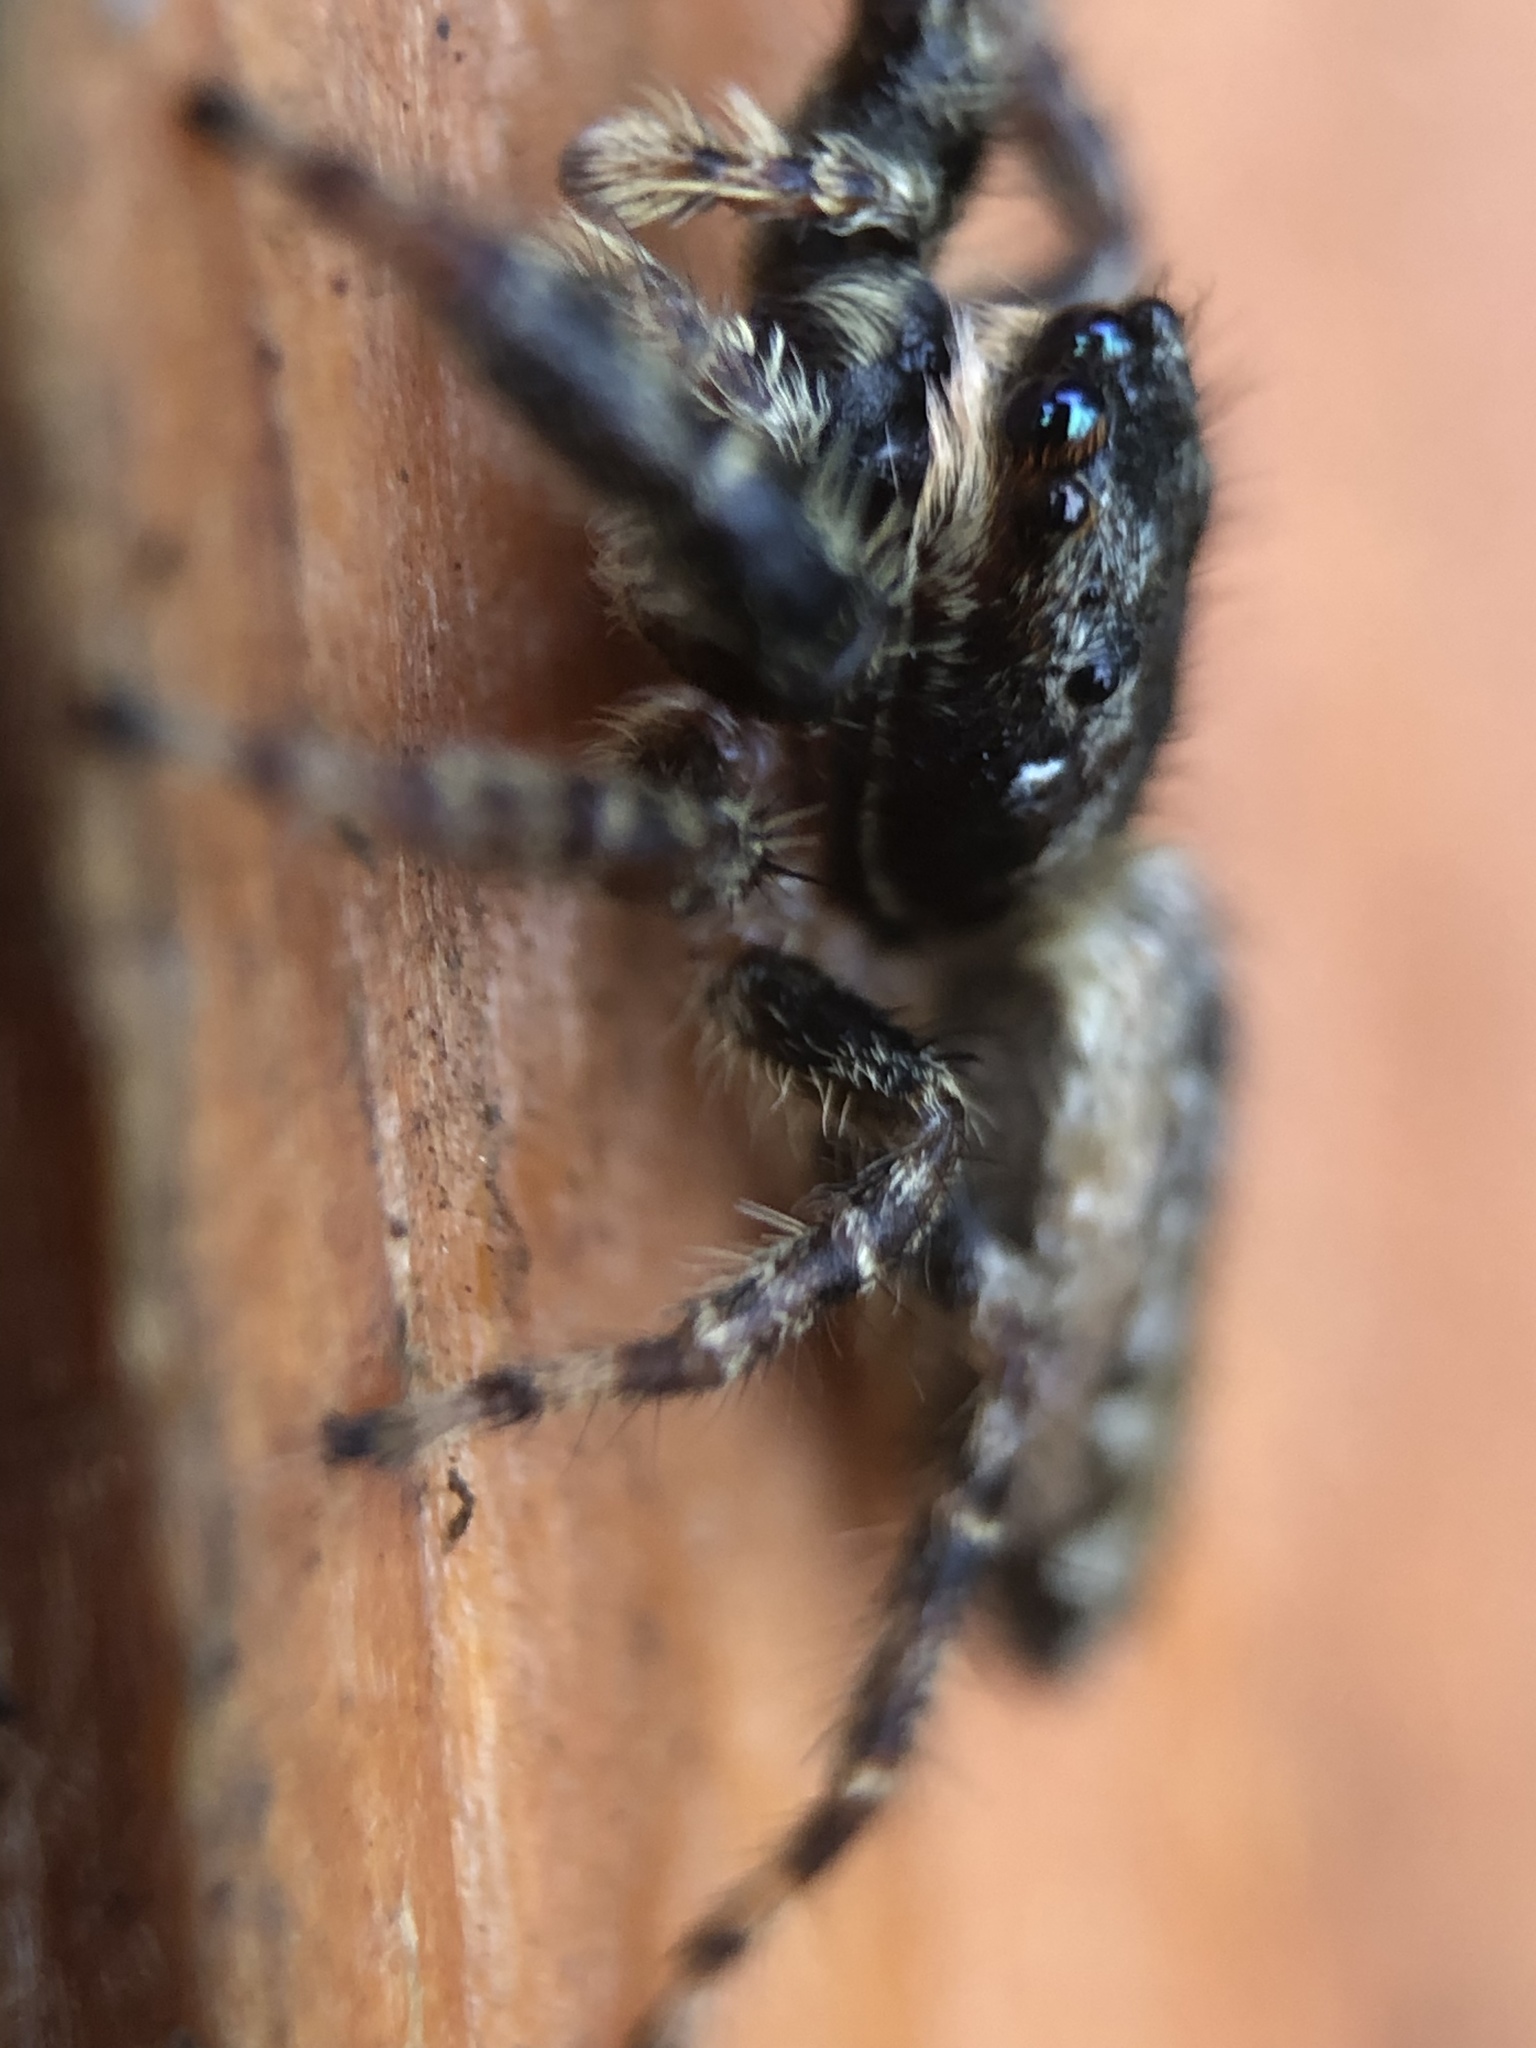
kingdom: Animalia
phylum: Arthropoda
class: Arachnida
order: Araneae
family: Salticidae
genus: Marpissa
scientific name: Marpissa muscosa
